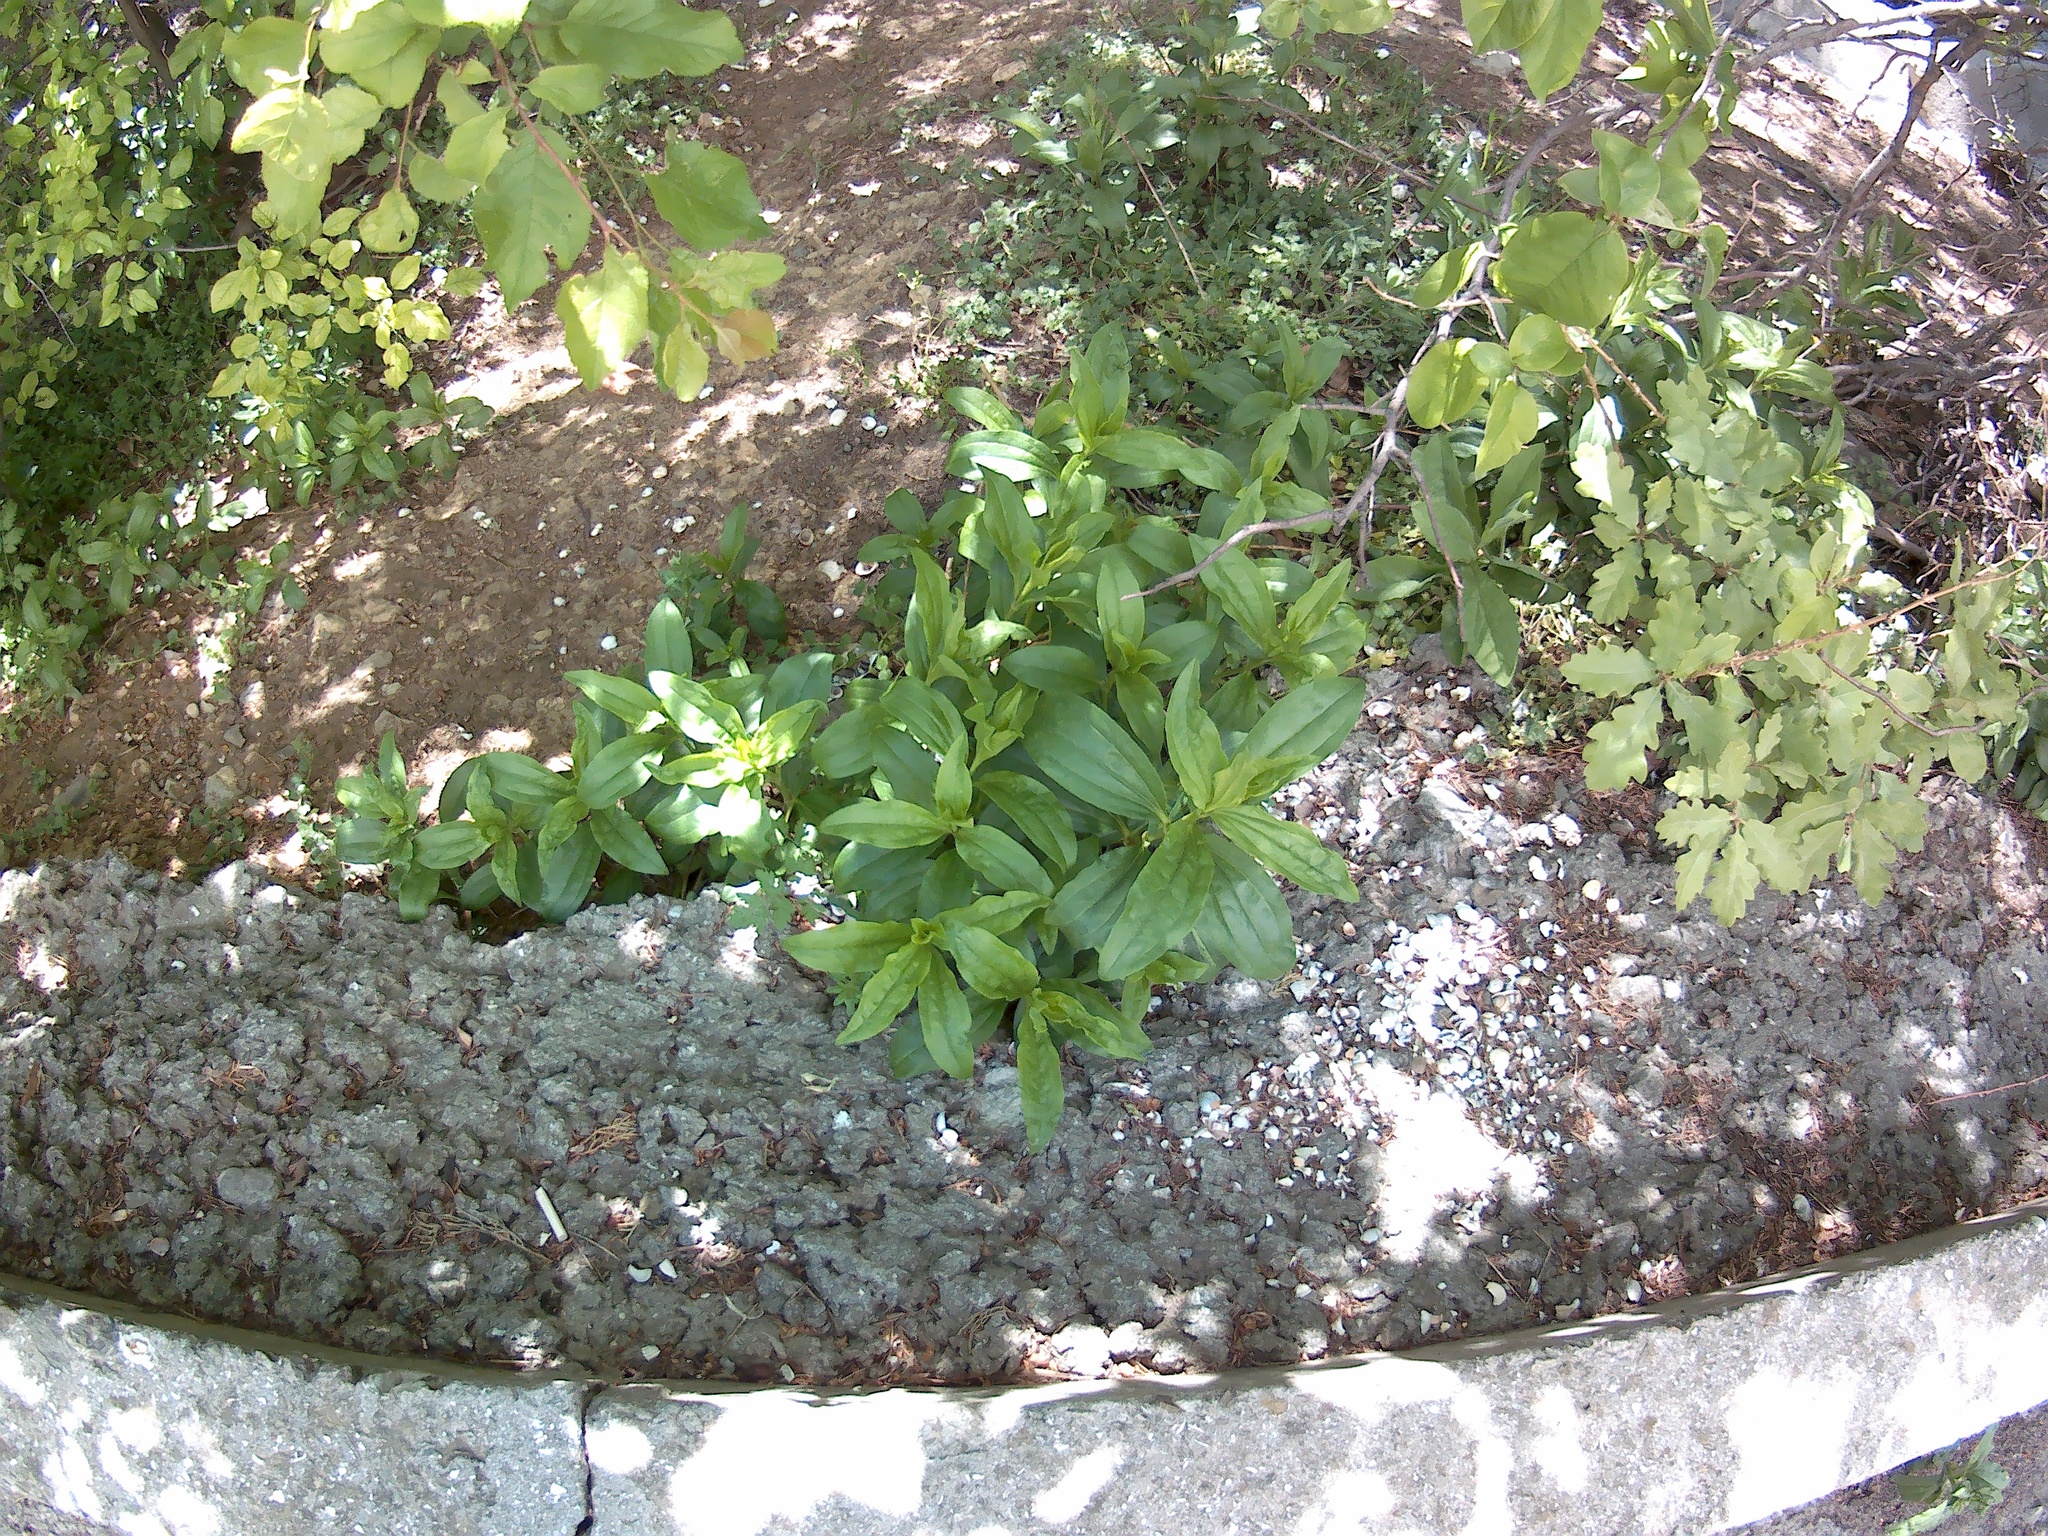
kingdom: Plantae
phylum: Tracheophyta
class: Magnoliopsida
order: Caryophyllales
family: Caryophyllaceae
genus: Saponaria
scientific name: Saponaria officinalis
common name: Soapwort
